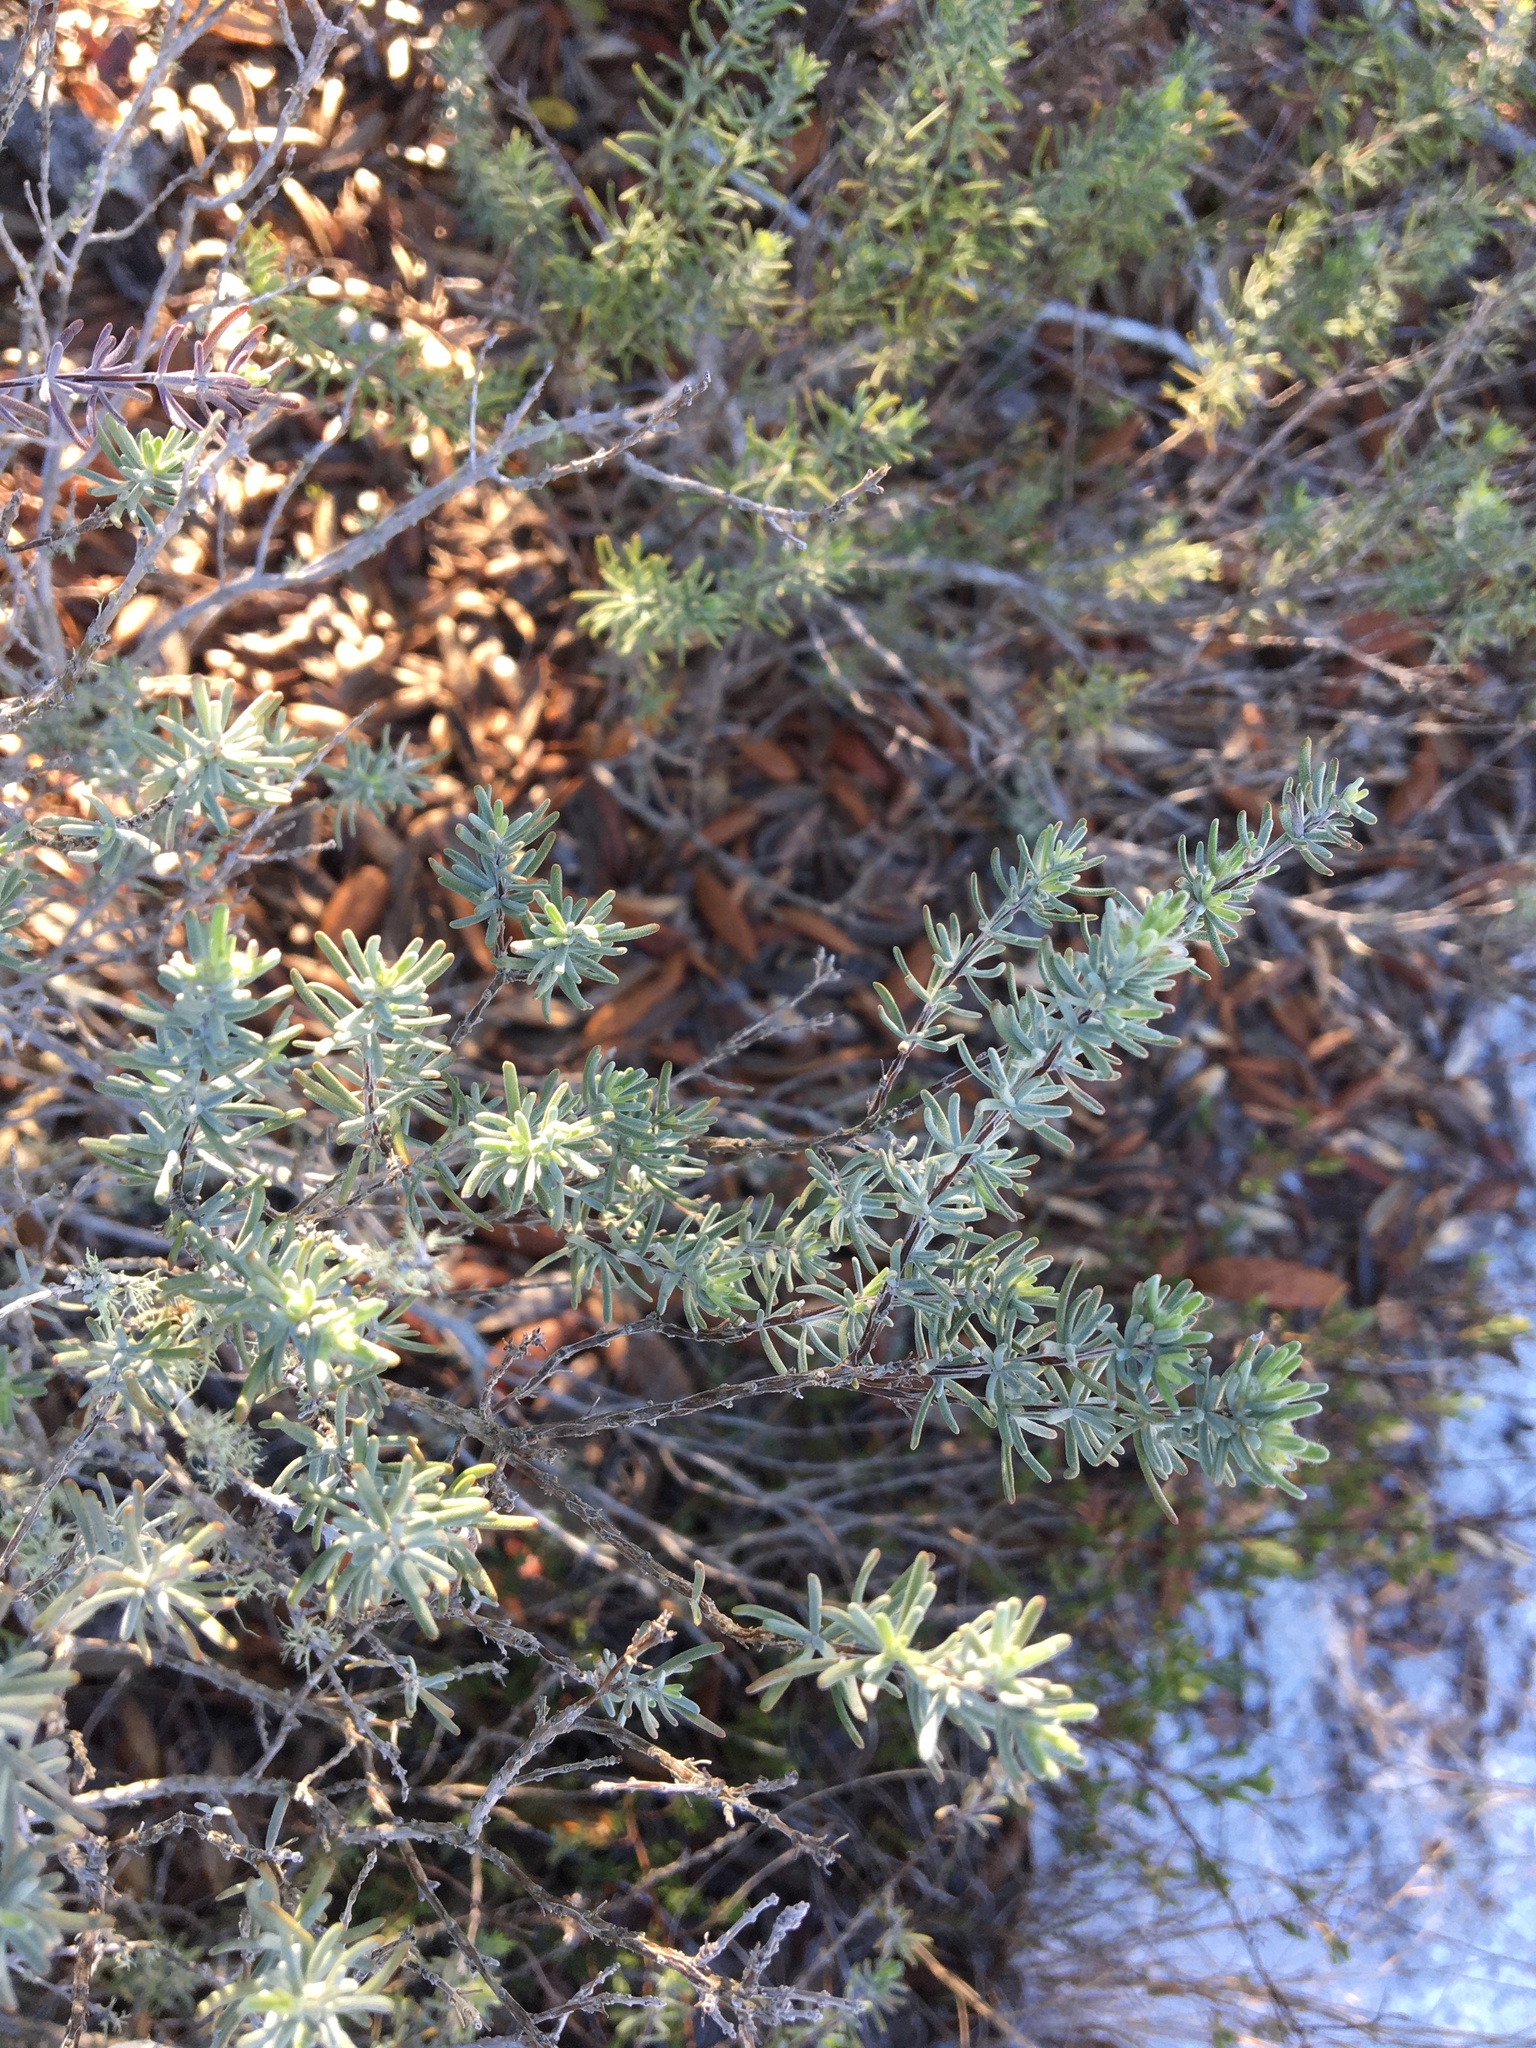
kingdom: Plantae
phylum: Tracheophyta
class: Magnoliopsida
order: Lamiales
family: Lamiaceae
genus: Conradina
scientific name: Conradina canescens
